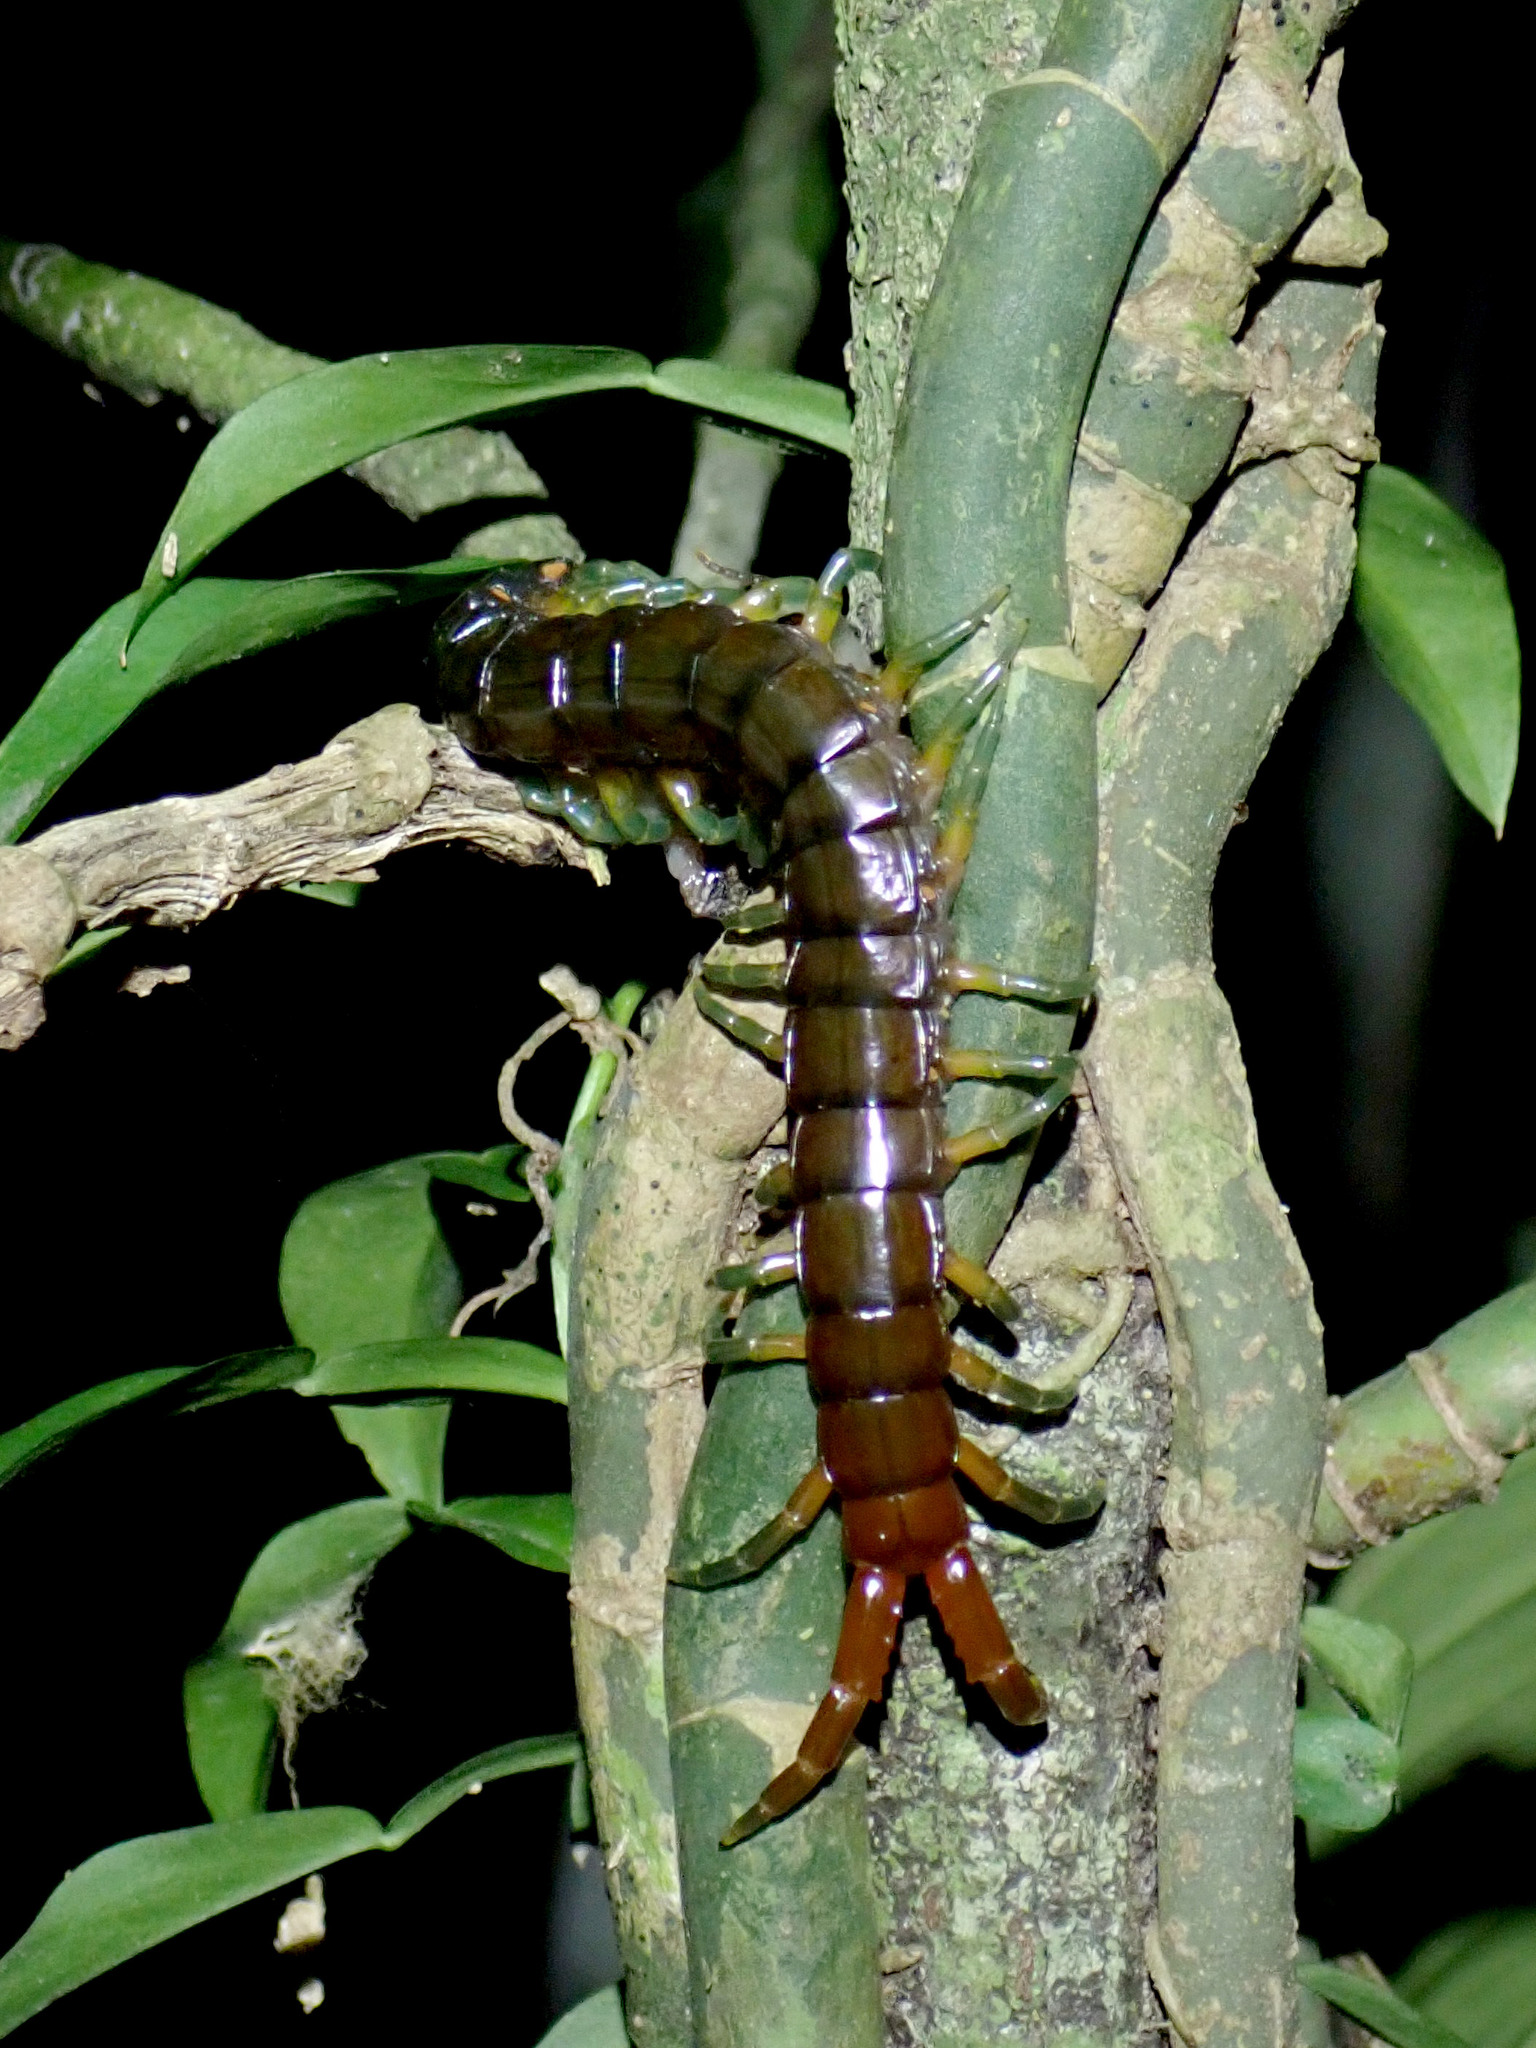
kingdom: Animalia
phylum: Arthropoda
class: Chilopoda
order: Scolopendromorpha
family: Scolopendridae
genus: Ethmostigmus
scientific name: Ethmostigmus rubripes
